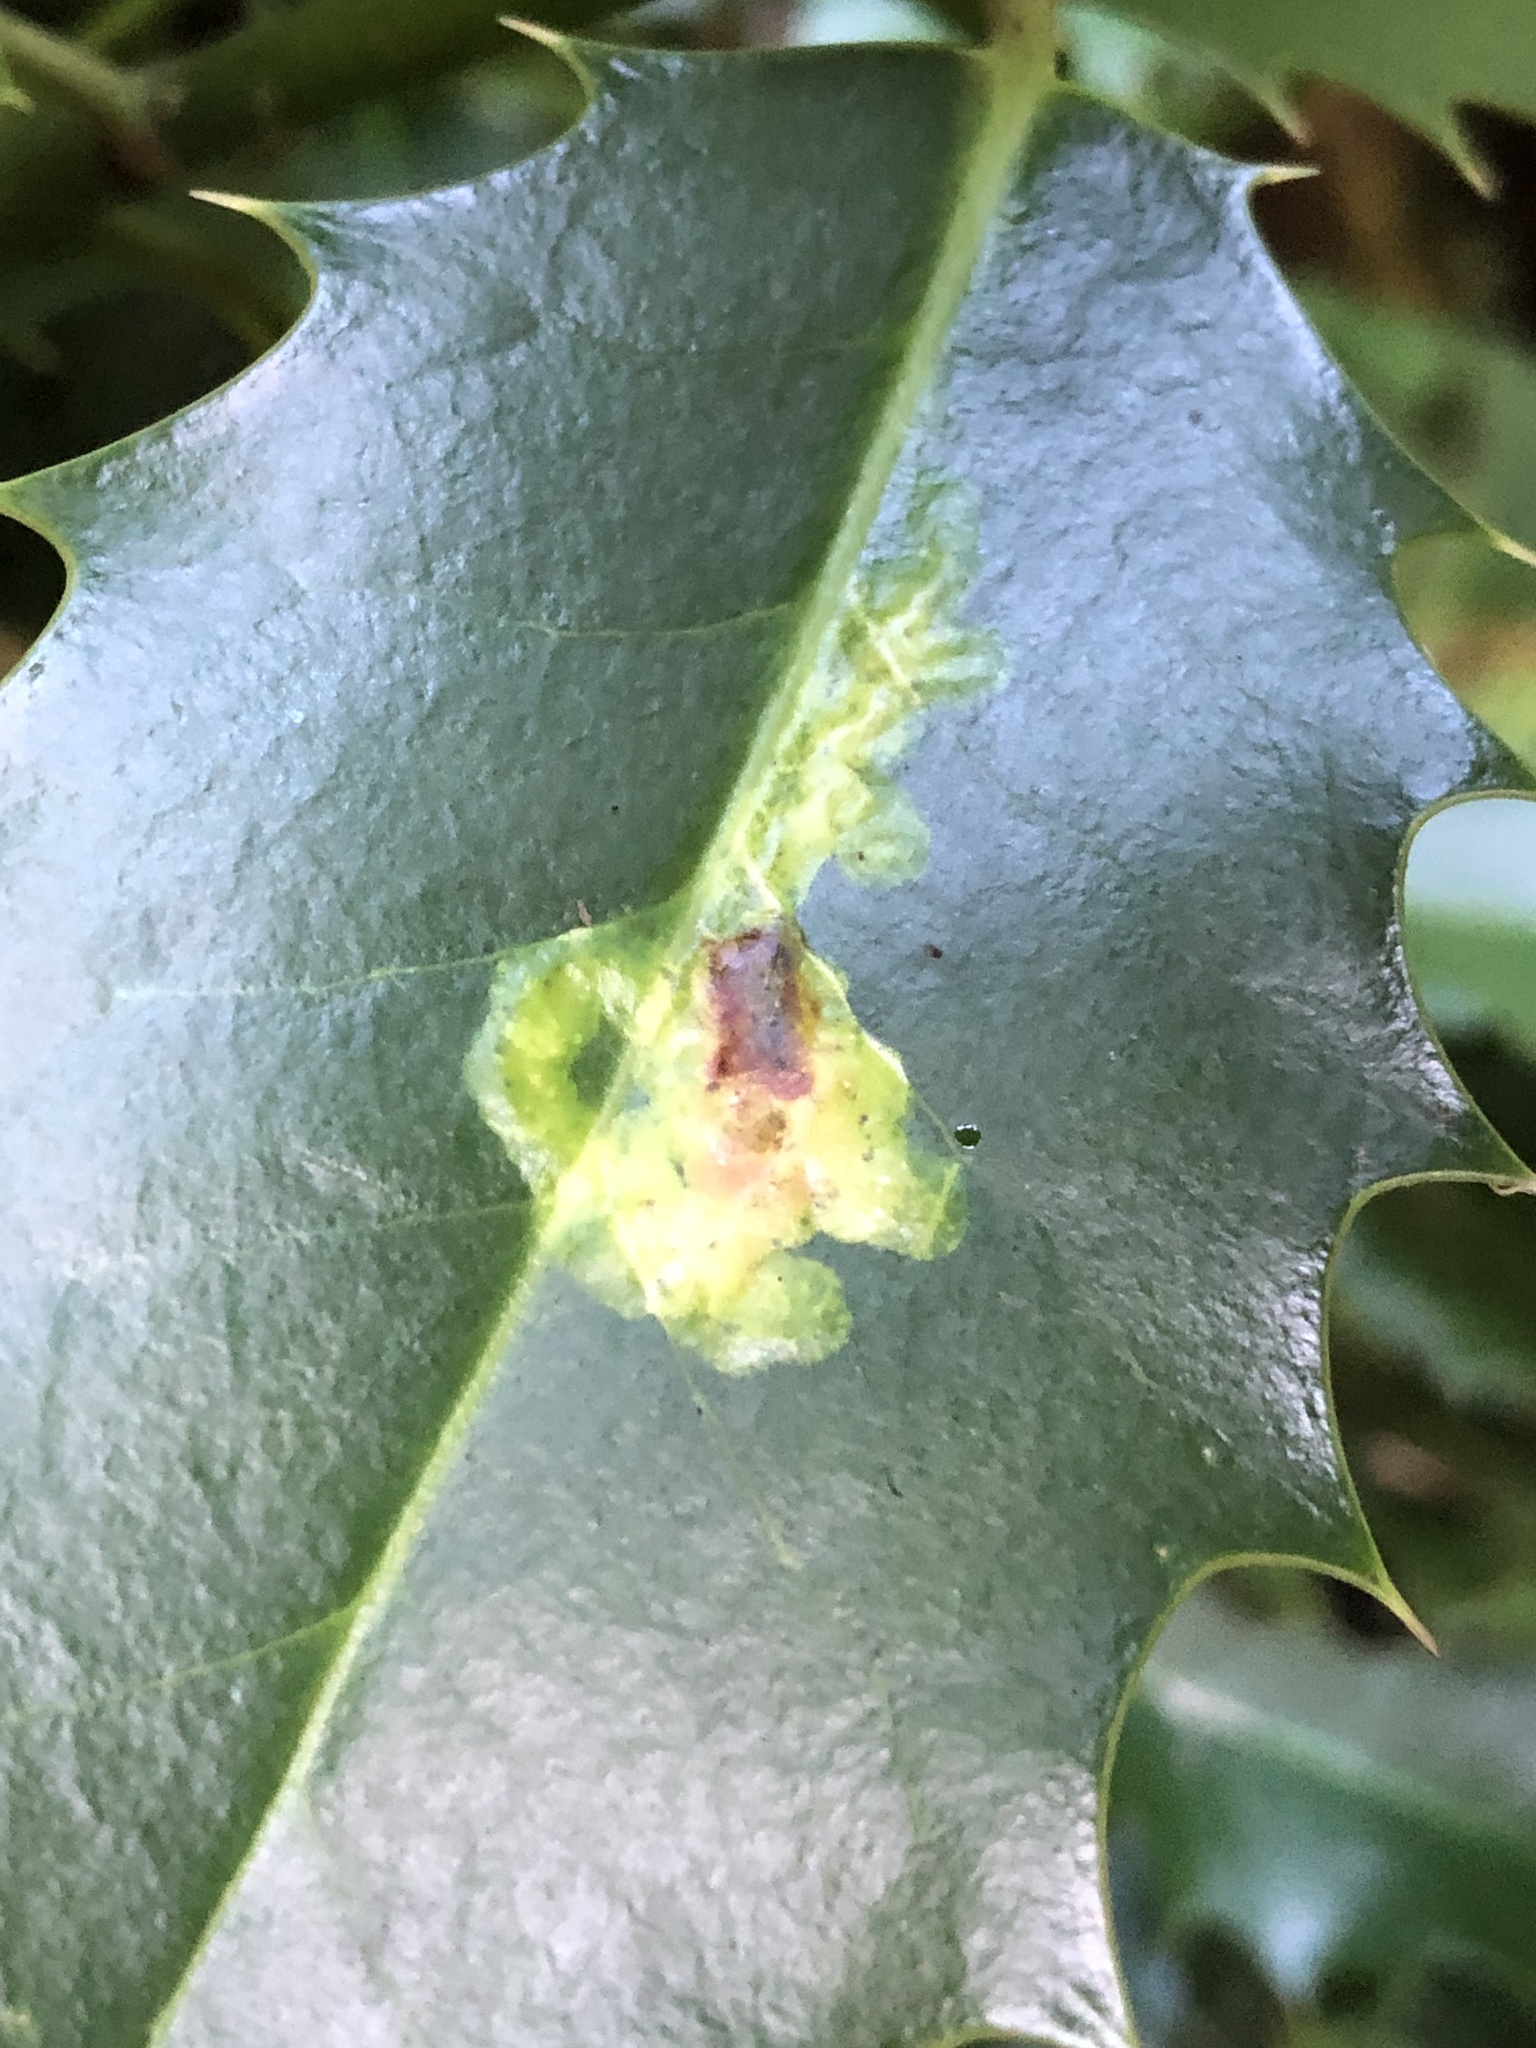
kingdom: Animalia
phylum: Arthropoda
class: Insecta
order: Diptera
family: Agromyzidae
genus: Phytomyza
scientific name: Phytomyza ilicis
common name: Holly leafminer
